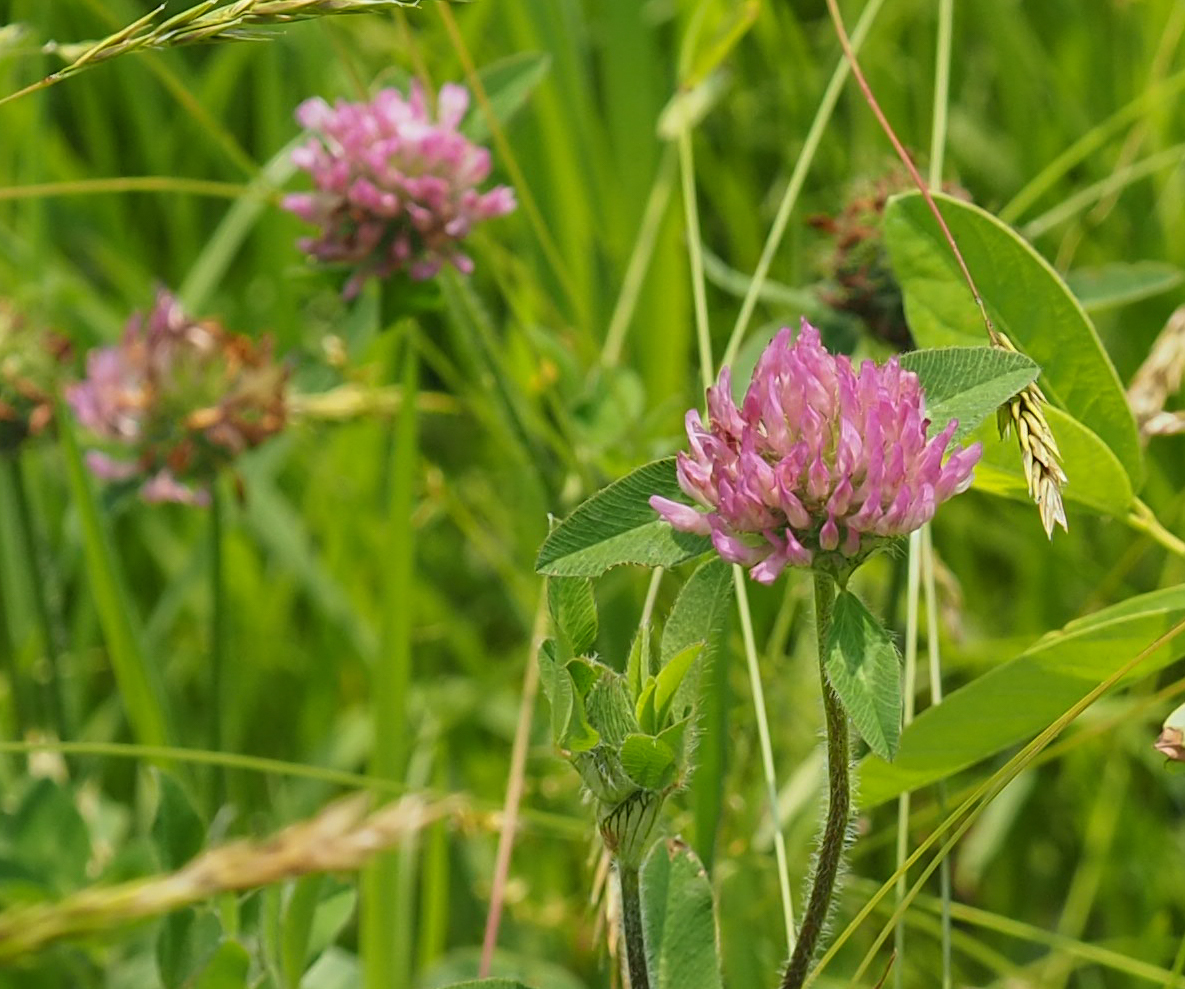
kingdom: Plantae
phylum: Tracheophyta
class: Magnoliopsida
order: Fabales
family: Fabaceae
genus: Trifolium
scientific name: Trifolium pratense
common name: Red clover
